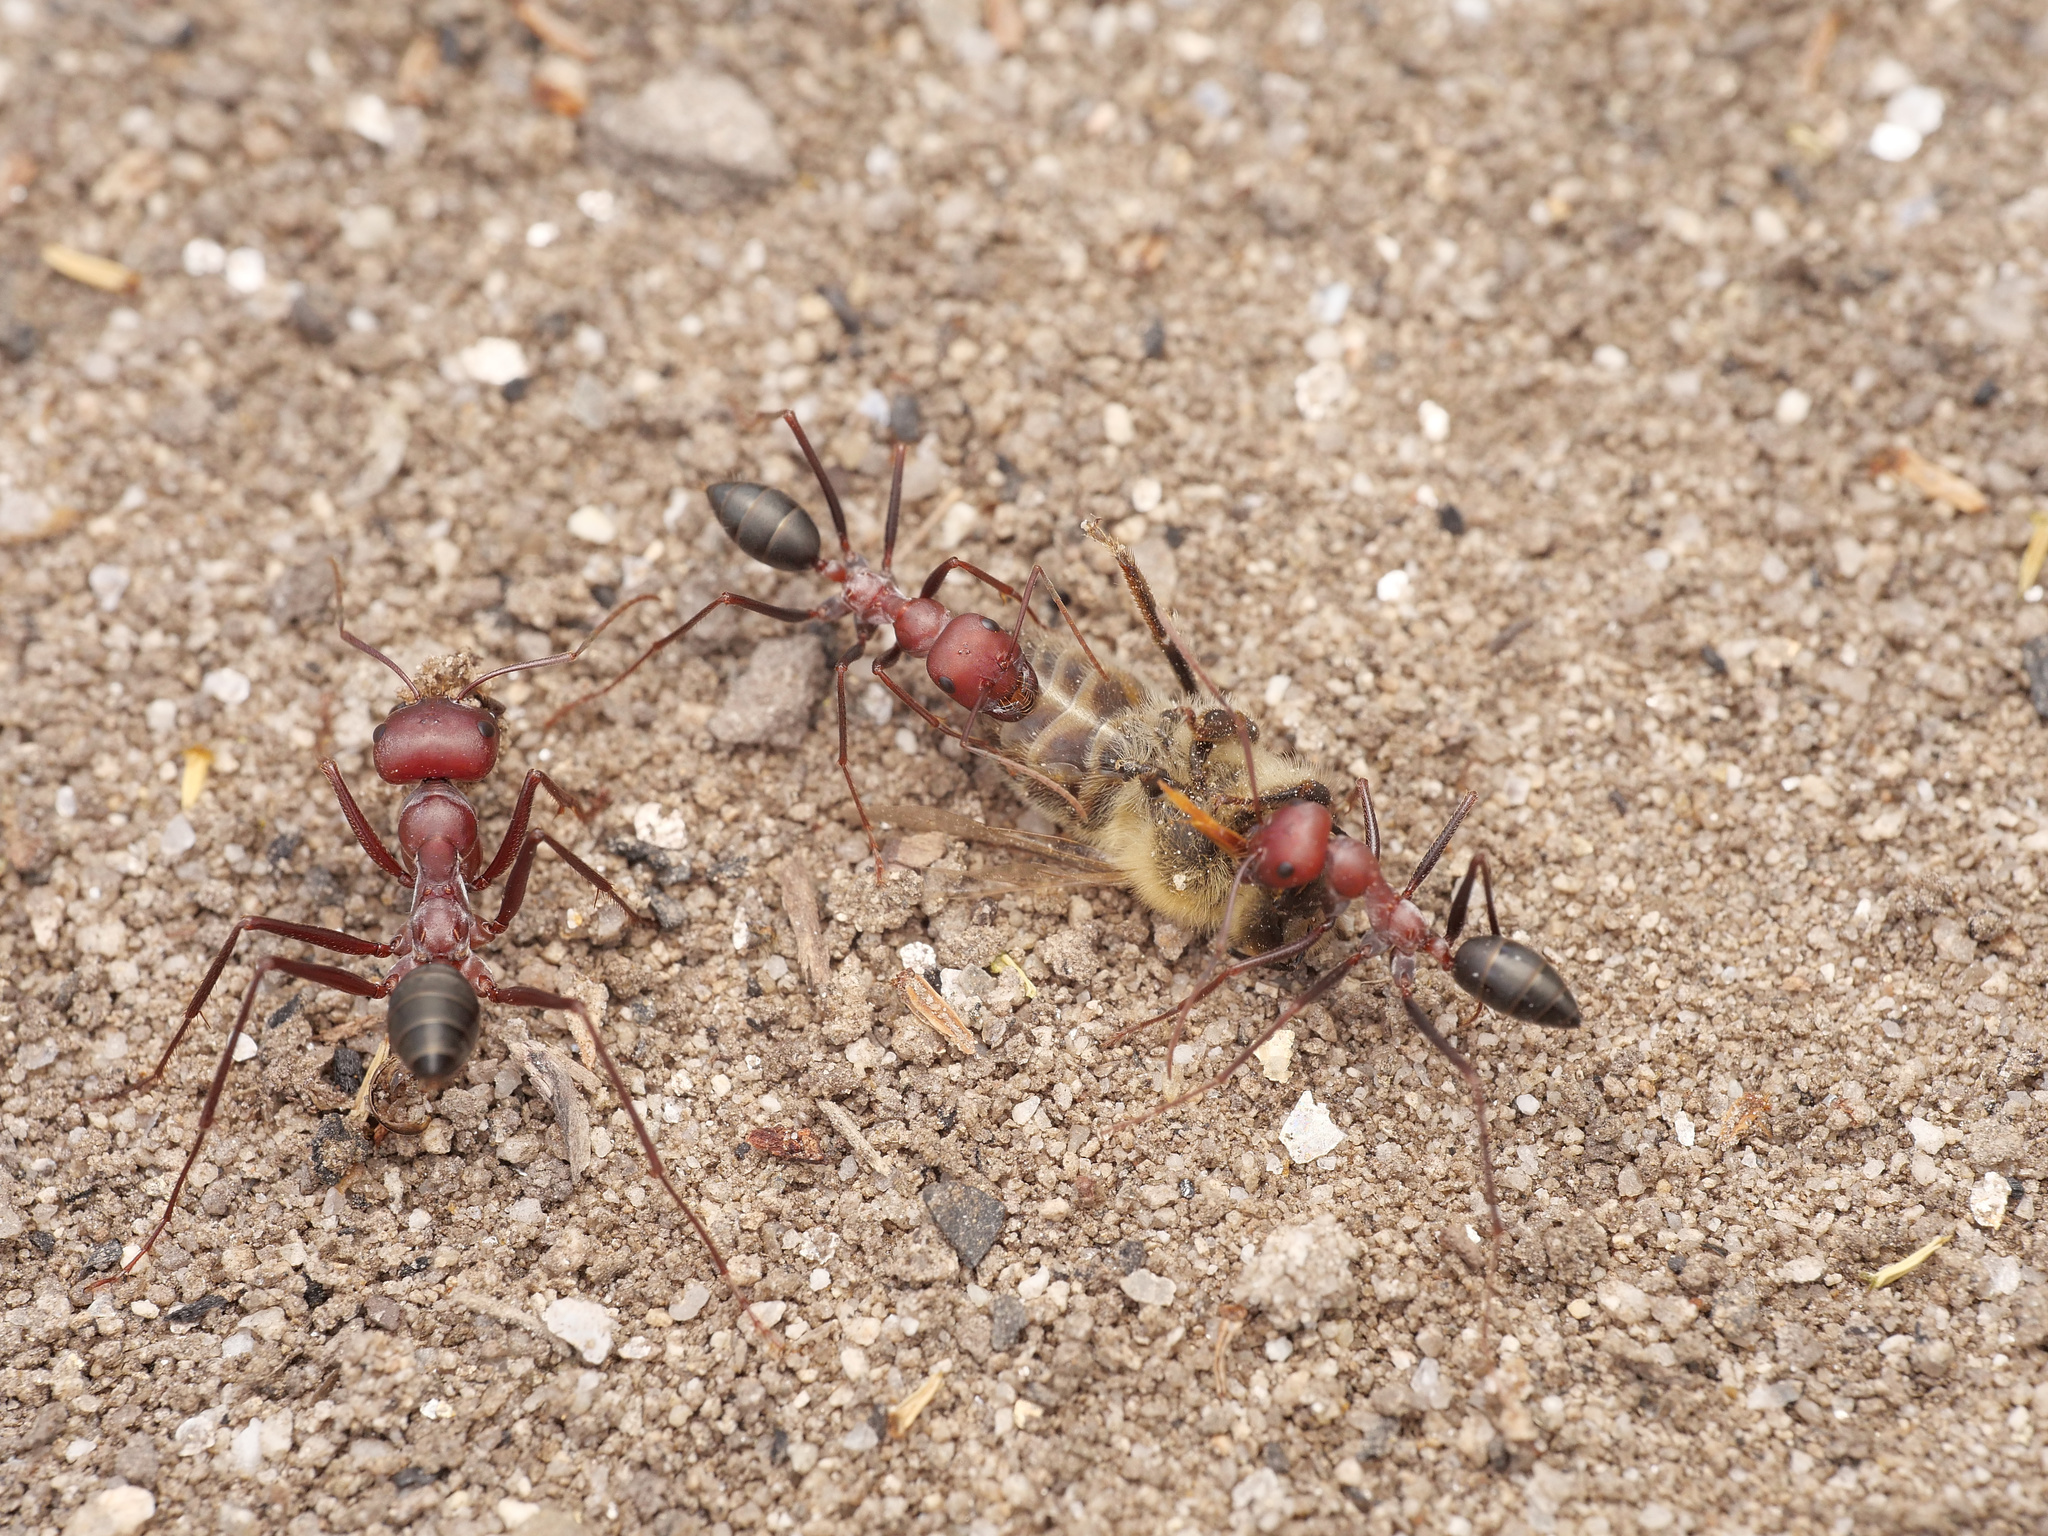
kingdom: Animalia
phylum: Arthropoda
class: Insecta
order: Hymenoptera
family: Formicidae
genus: Cataglyphis
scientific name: Cataglyphis nodus
